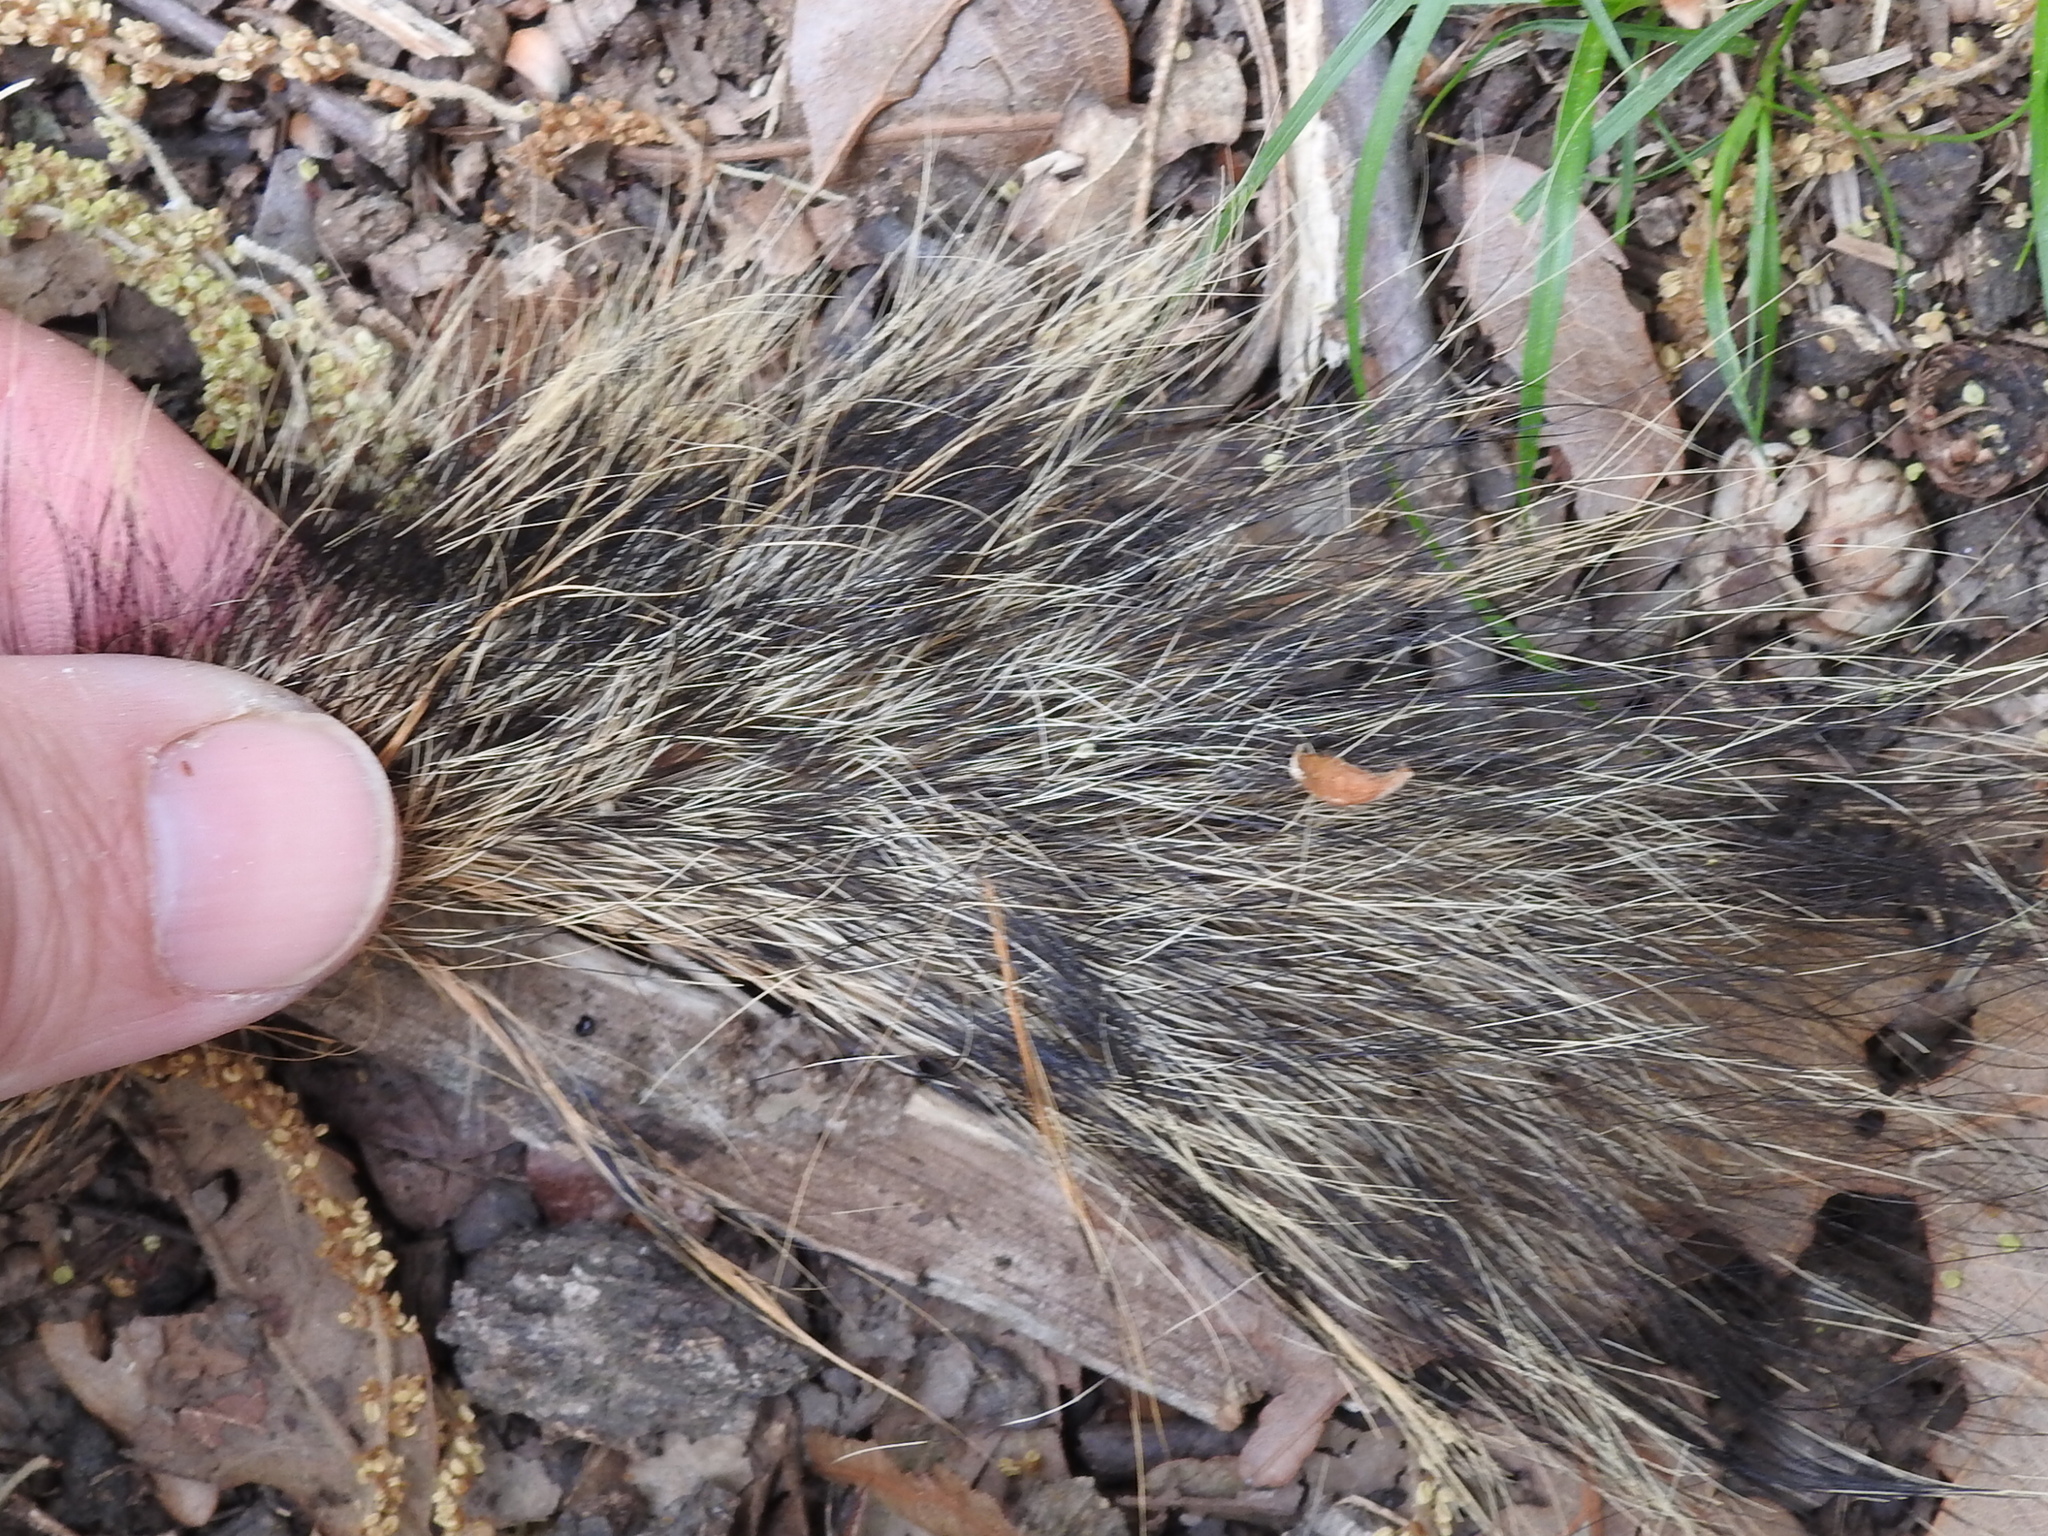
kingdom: Animalia
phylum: Chordata
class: Mammalia
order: Rodentia
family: Sciuridae
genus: Sciurus
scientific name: Sciurus niger
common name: Fox squirrel
